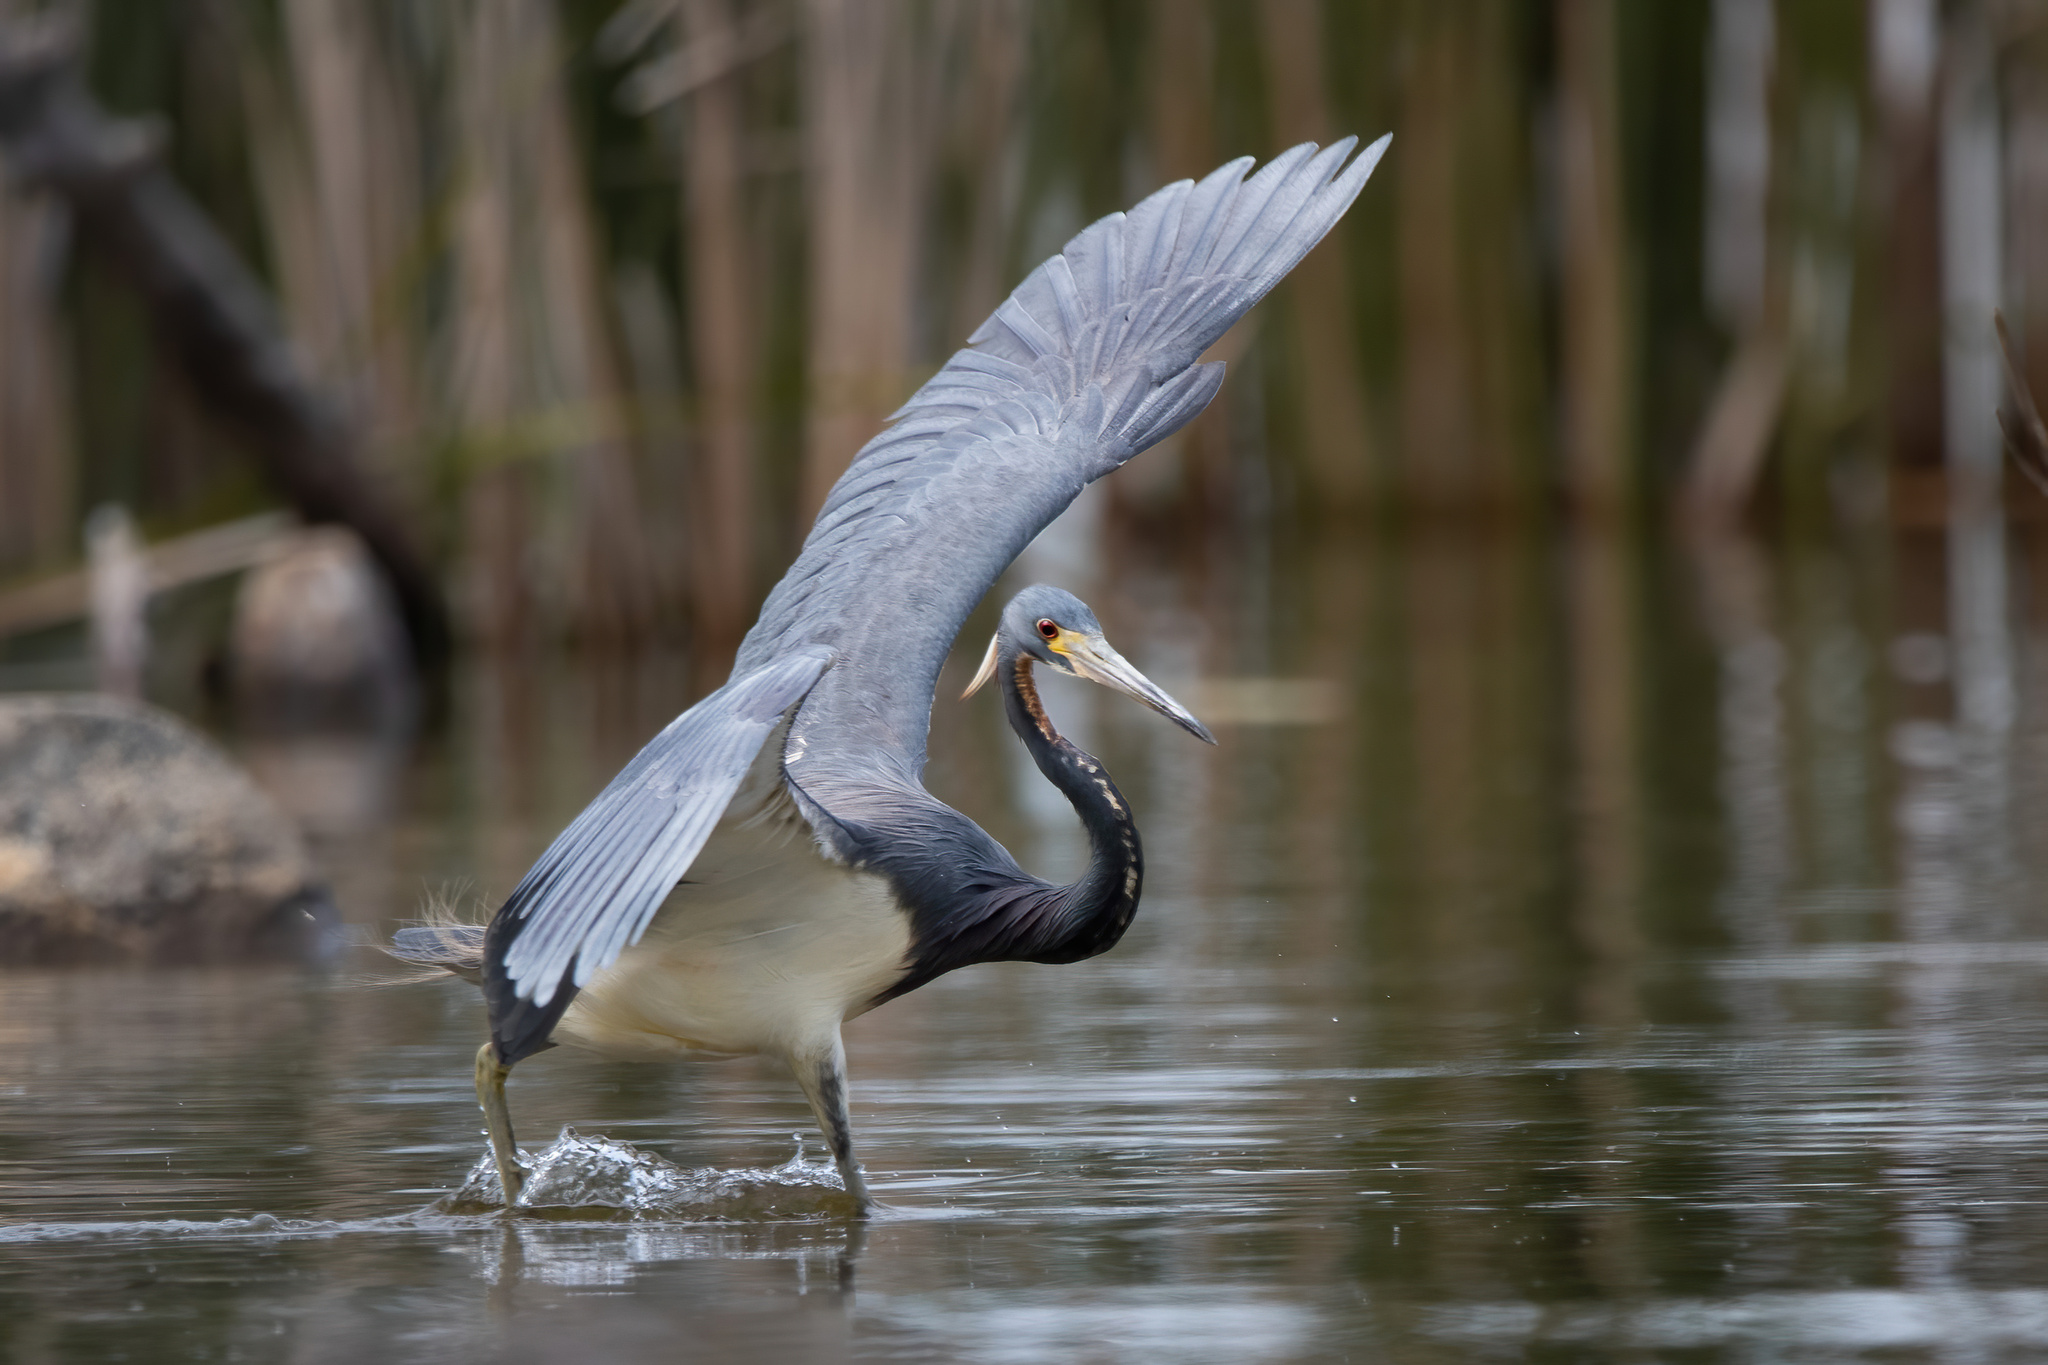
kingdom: Animalia
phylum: Chordata
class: Aves
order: Pelecaniformes
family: Ardeidae
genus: Egretta
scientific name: Egretta tricolor
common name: Tricolored heron
